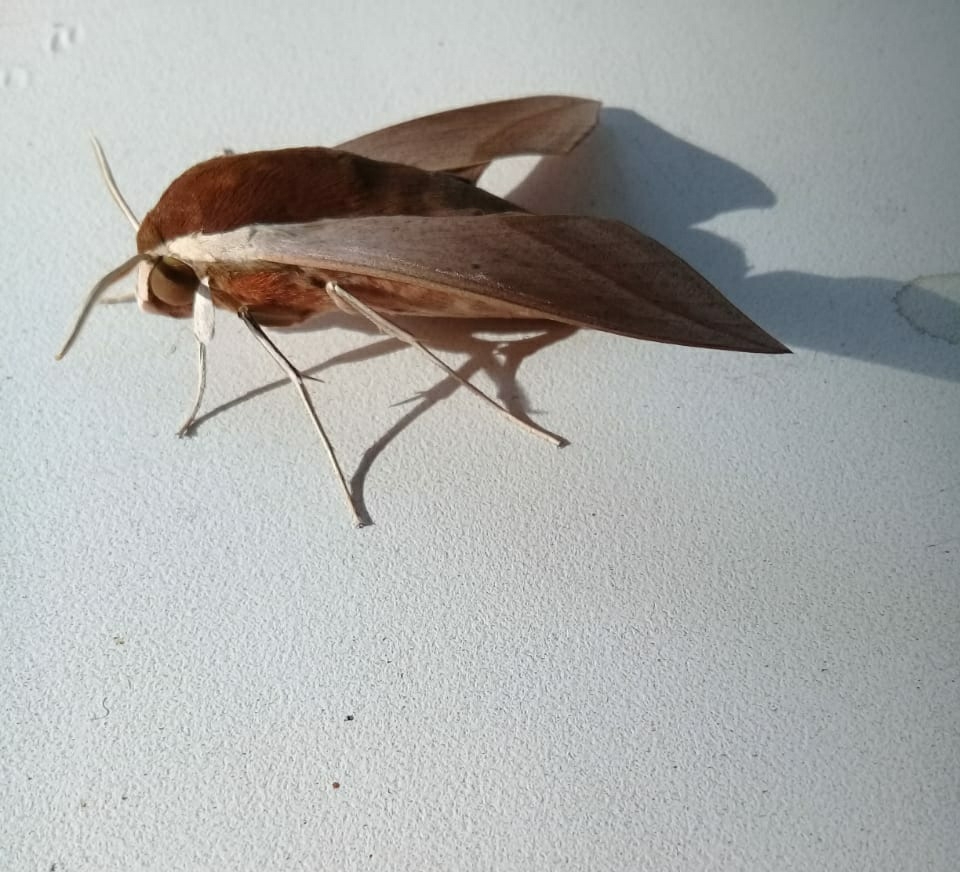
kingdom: Animalia
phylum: Arthropoda
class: Insecta
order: Lepidoptera
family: Sphingidae
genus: Theretra
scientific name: Theretra alecto
